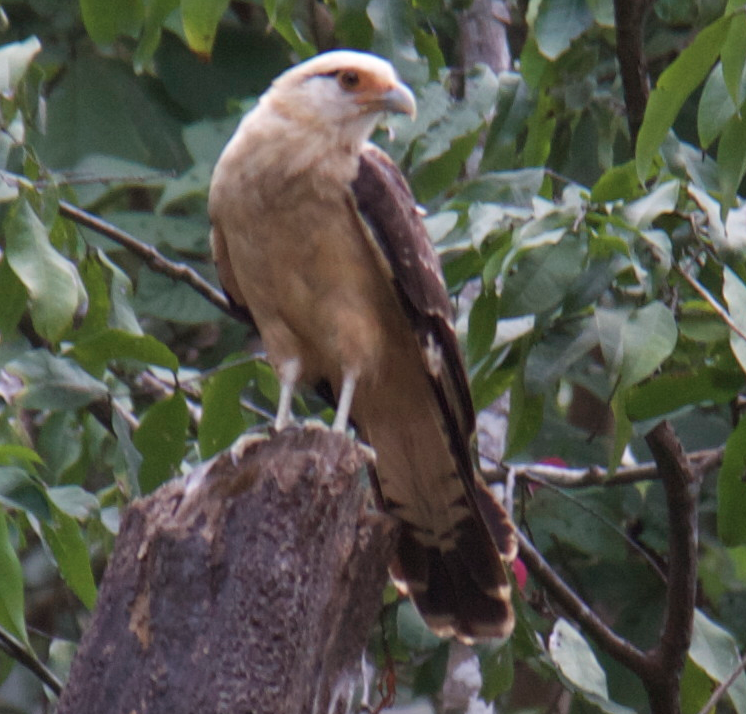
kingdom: Animalia
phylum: Chordata
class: Aves
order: Falconiformes
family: Falconidae
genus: Daptrius
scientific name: Daptrius
